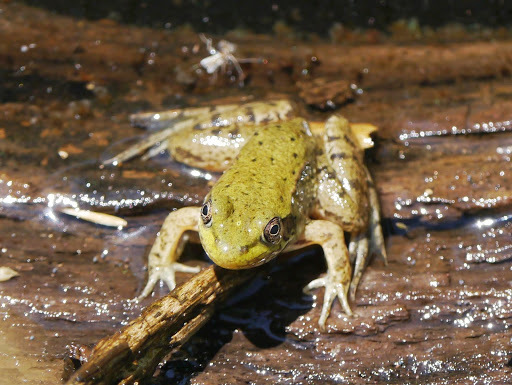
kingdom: Animalia
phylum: Chordata
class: Amphibia
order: Anura
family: Ranidae
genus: Lithobates
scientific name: Lithobates clamitans
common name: Green frog
